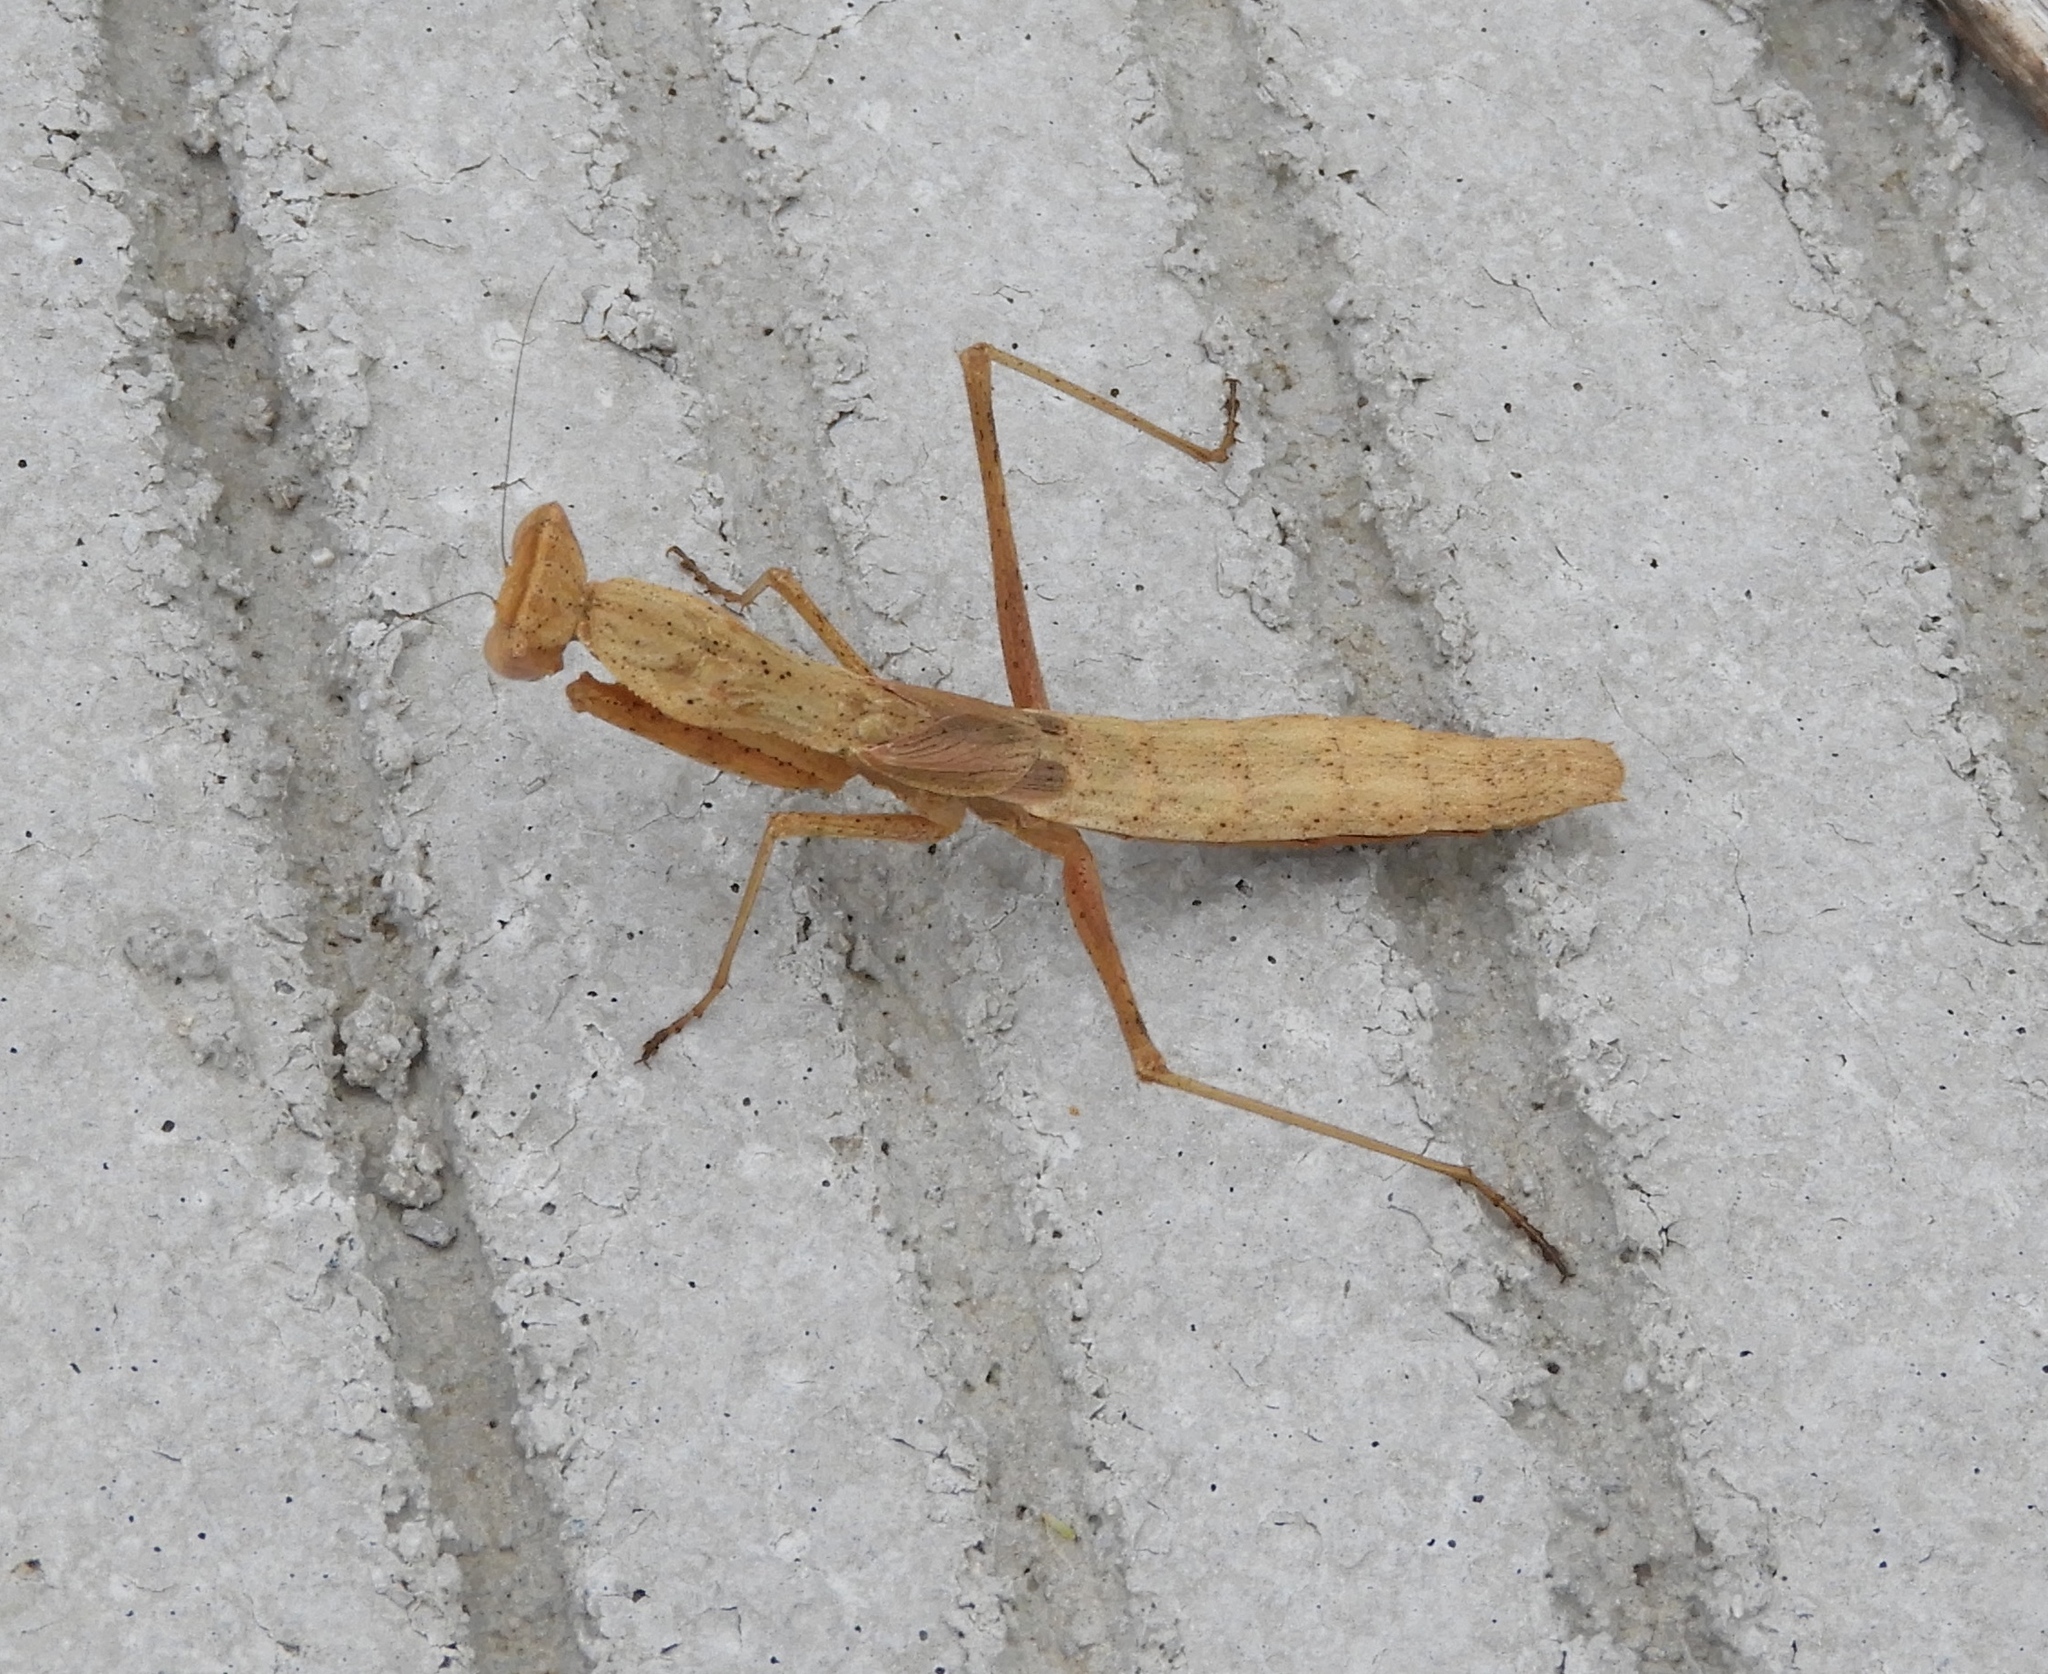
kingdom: Animalia
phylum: Arthropoda
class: Insecta
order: Mantodea
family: Amelidae
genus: Yersinia
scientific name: Yersinia mexicana
